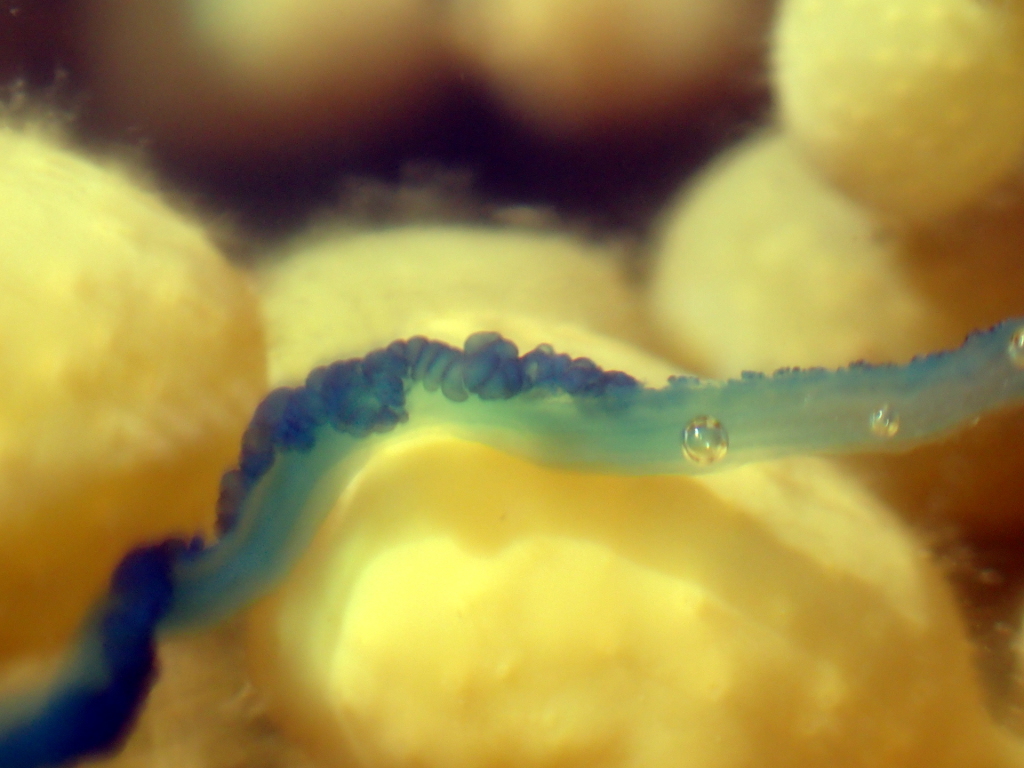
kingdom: Animalia
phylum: Cnidaria
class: Hydrozoa
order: Siphonophorae
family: Physaliidae
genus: Physalia
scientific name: Physalia physalis
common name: Portuguese man-of-war
